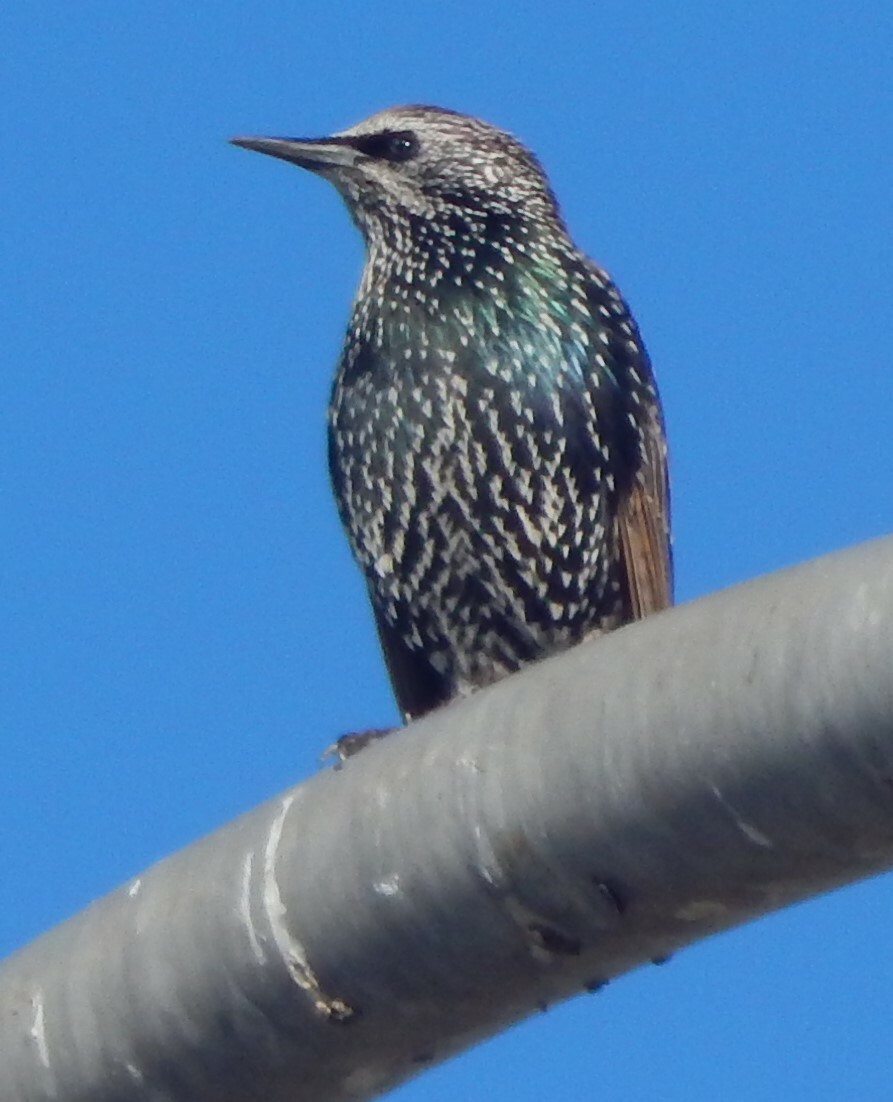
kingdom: Animalia
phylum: Chordata
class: Aves
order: Passeriformes
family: Sturnidae
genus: Sturnus
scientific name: Sturnus vulgaris
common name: Common starling
